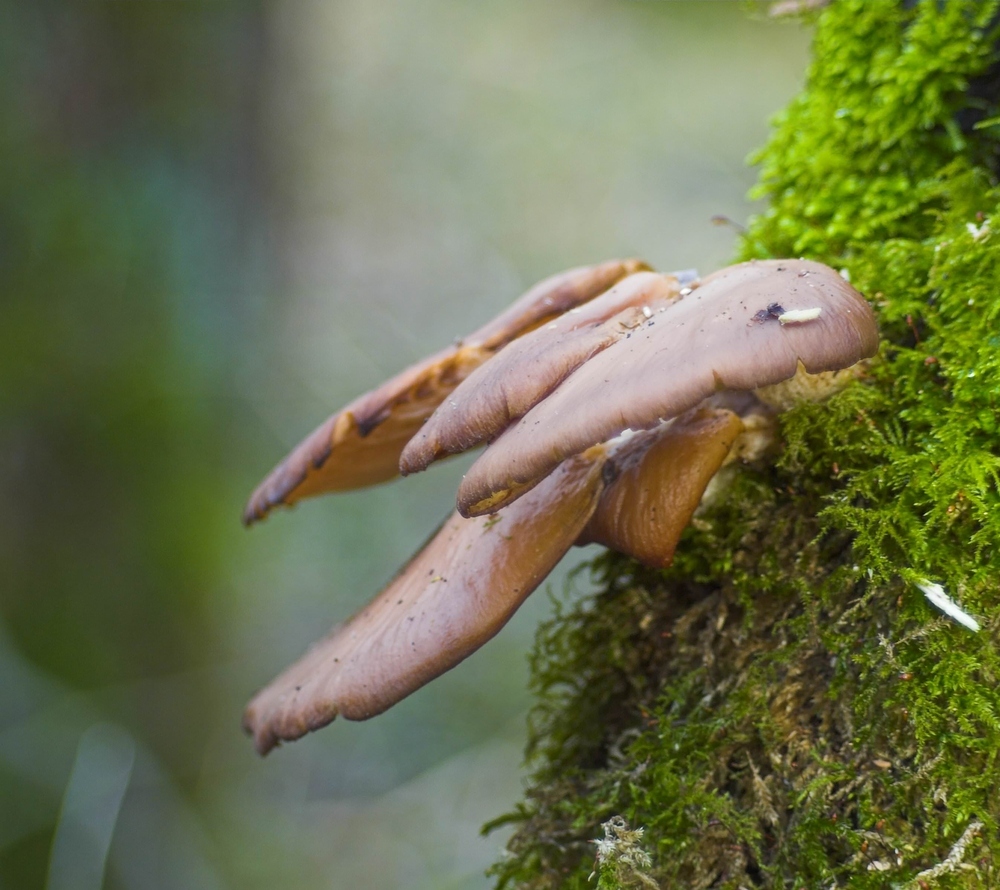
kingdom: Fungi
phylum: Basidiomycota
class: Agaricomycetes
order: Agaricales
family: Pleurotaceae
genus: Pleurotus
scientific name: Pleurotus ostreatus
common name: Oyster mushroom
